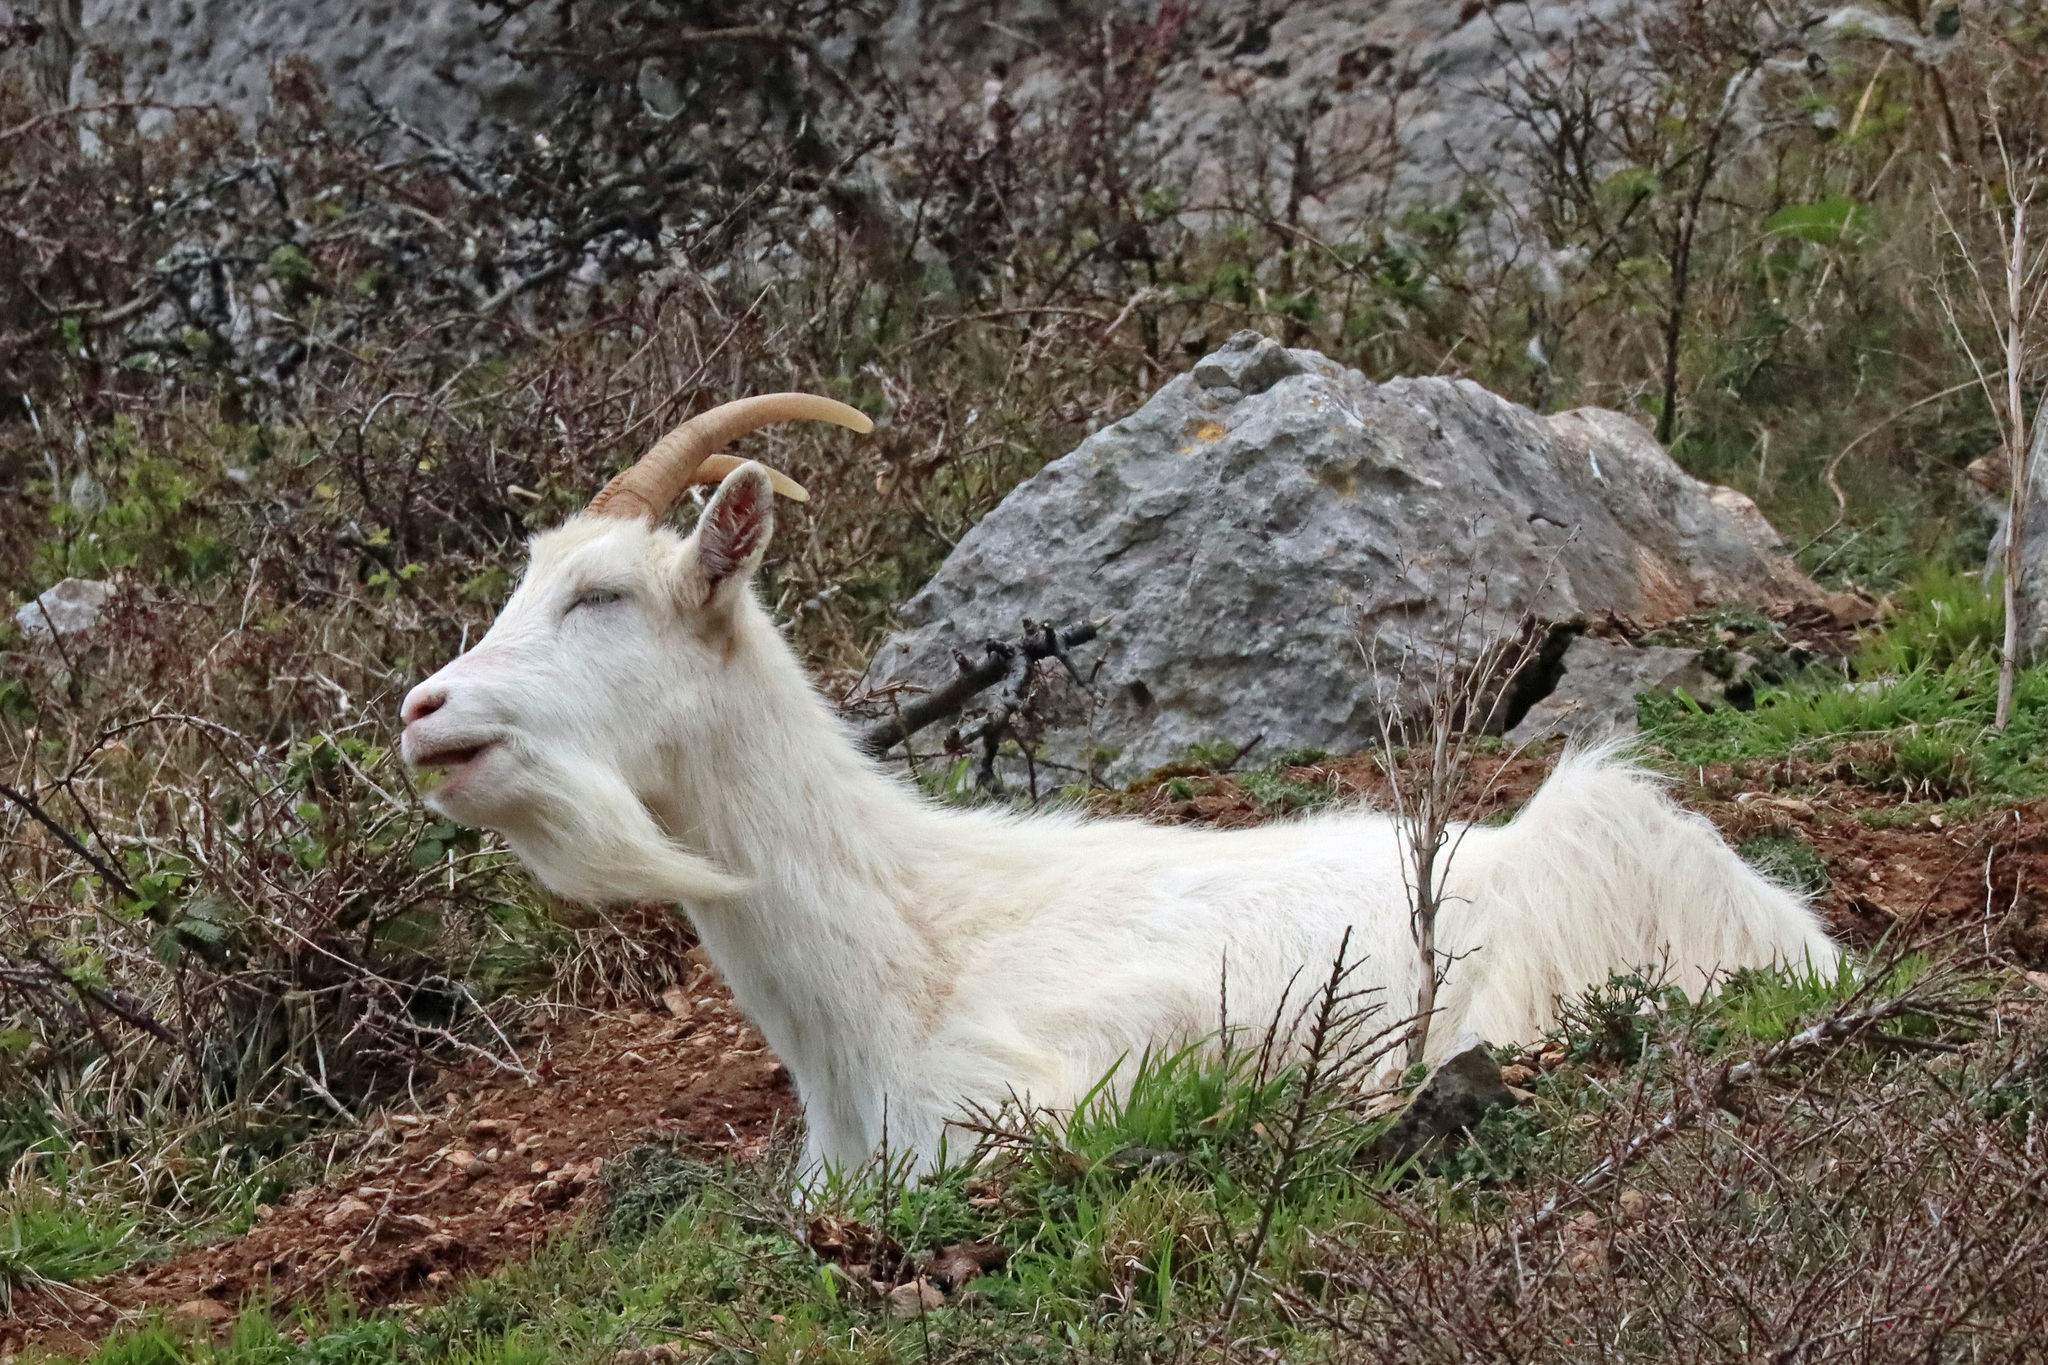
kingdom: Animalia
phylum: Chordata
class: Mammalia
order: Artiodactyla
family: Bovidae
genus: Capra
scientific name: Capra hircus
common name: Domestic goat
